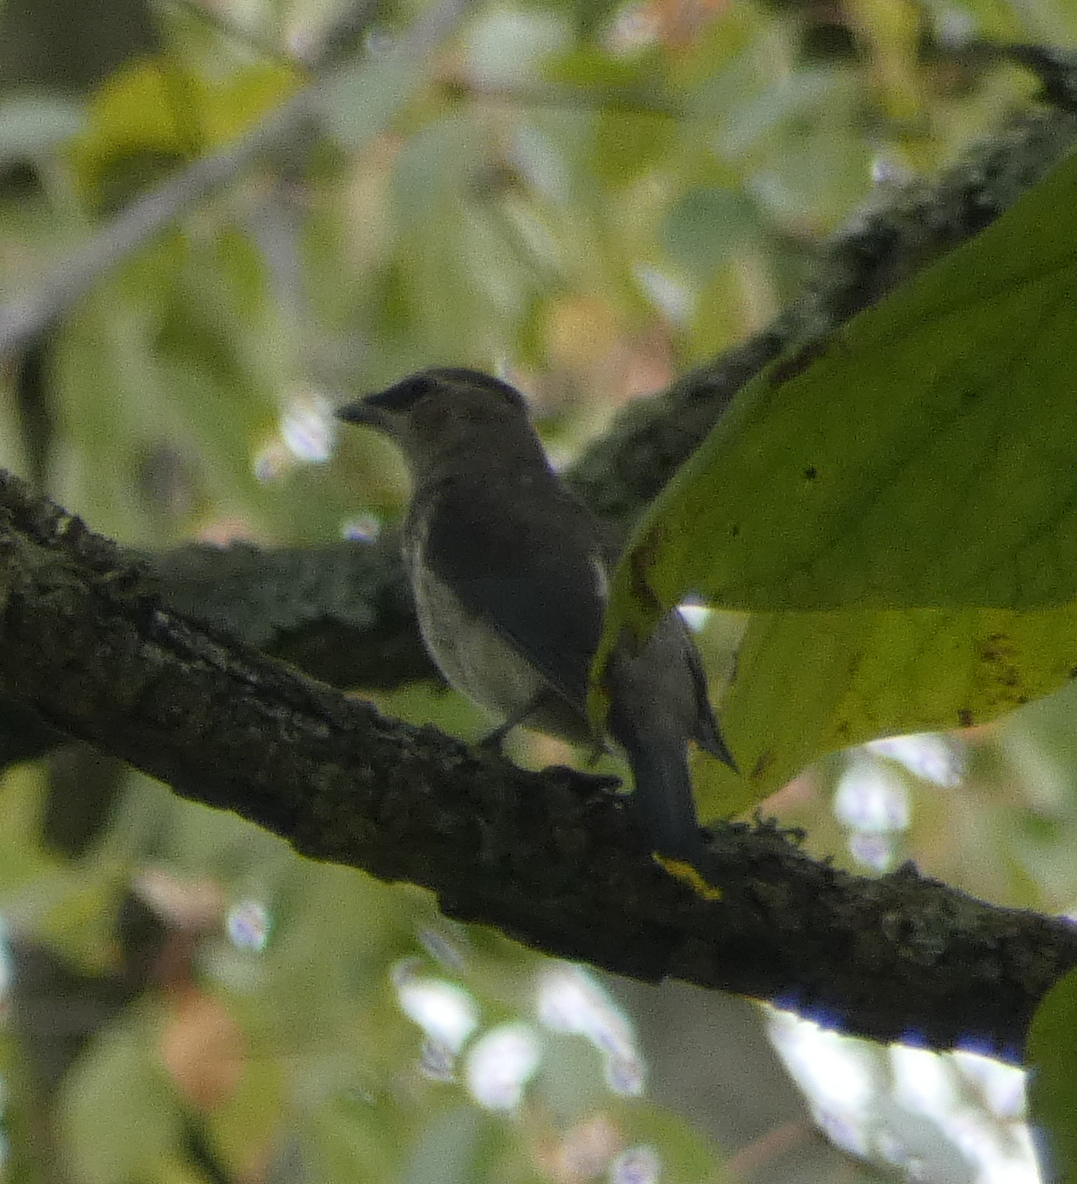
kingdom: Animalia
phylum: Chordata
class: Aves
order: Passeriformes
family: Bombycillidae
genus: Bombycilla
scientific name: Bombycilla cedrorum
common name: Cedar waxwing
